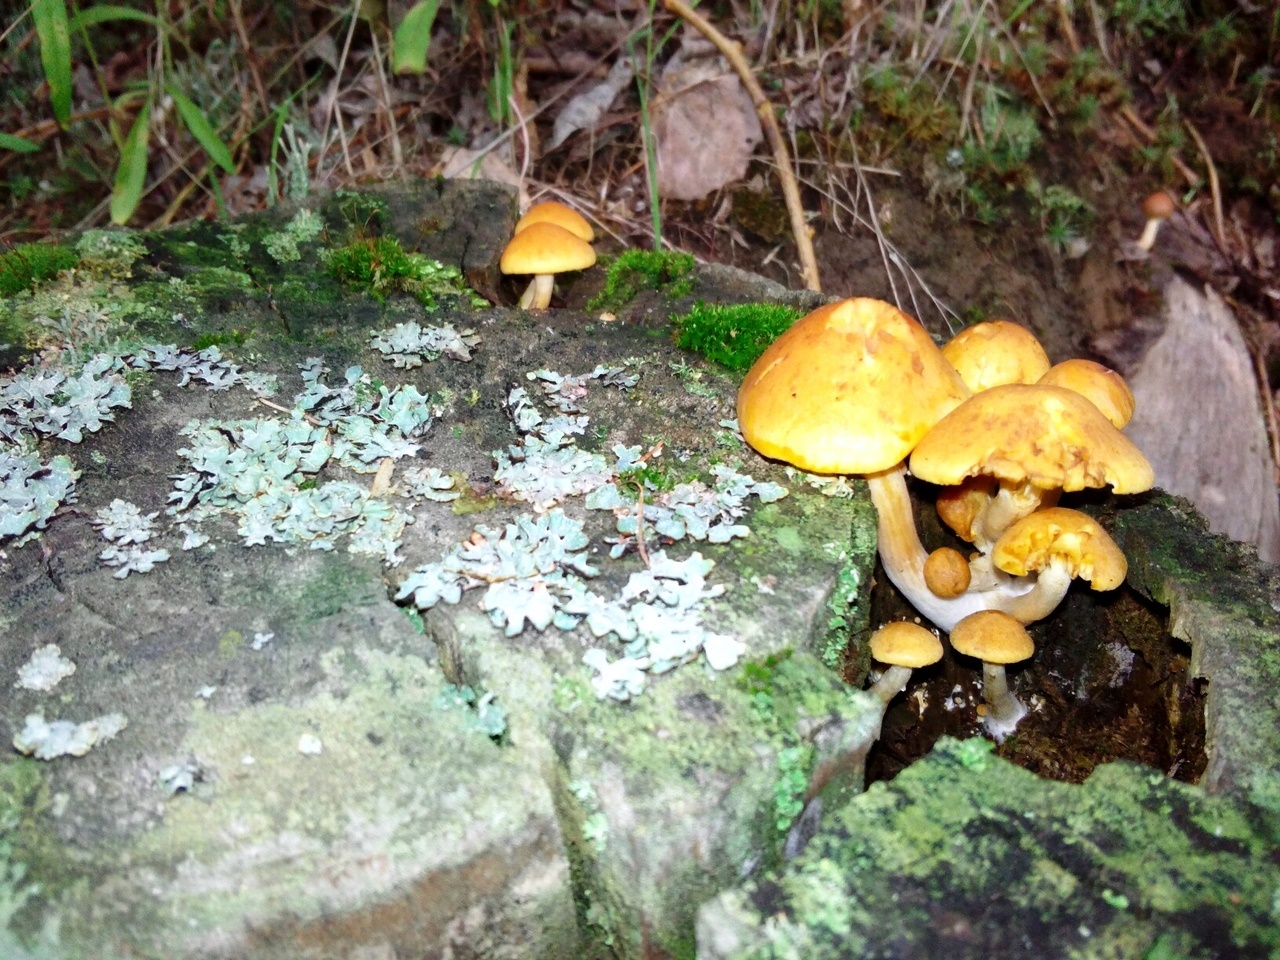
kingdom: Fungi
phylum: Basidiomycota
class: Agaricomycetes
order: Agaricales
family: Hymenogastraceae
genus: Gymnopilus
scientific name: Gymnopilus penetrans
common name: Common rustgill
